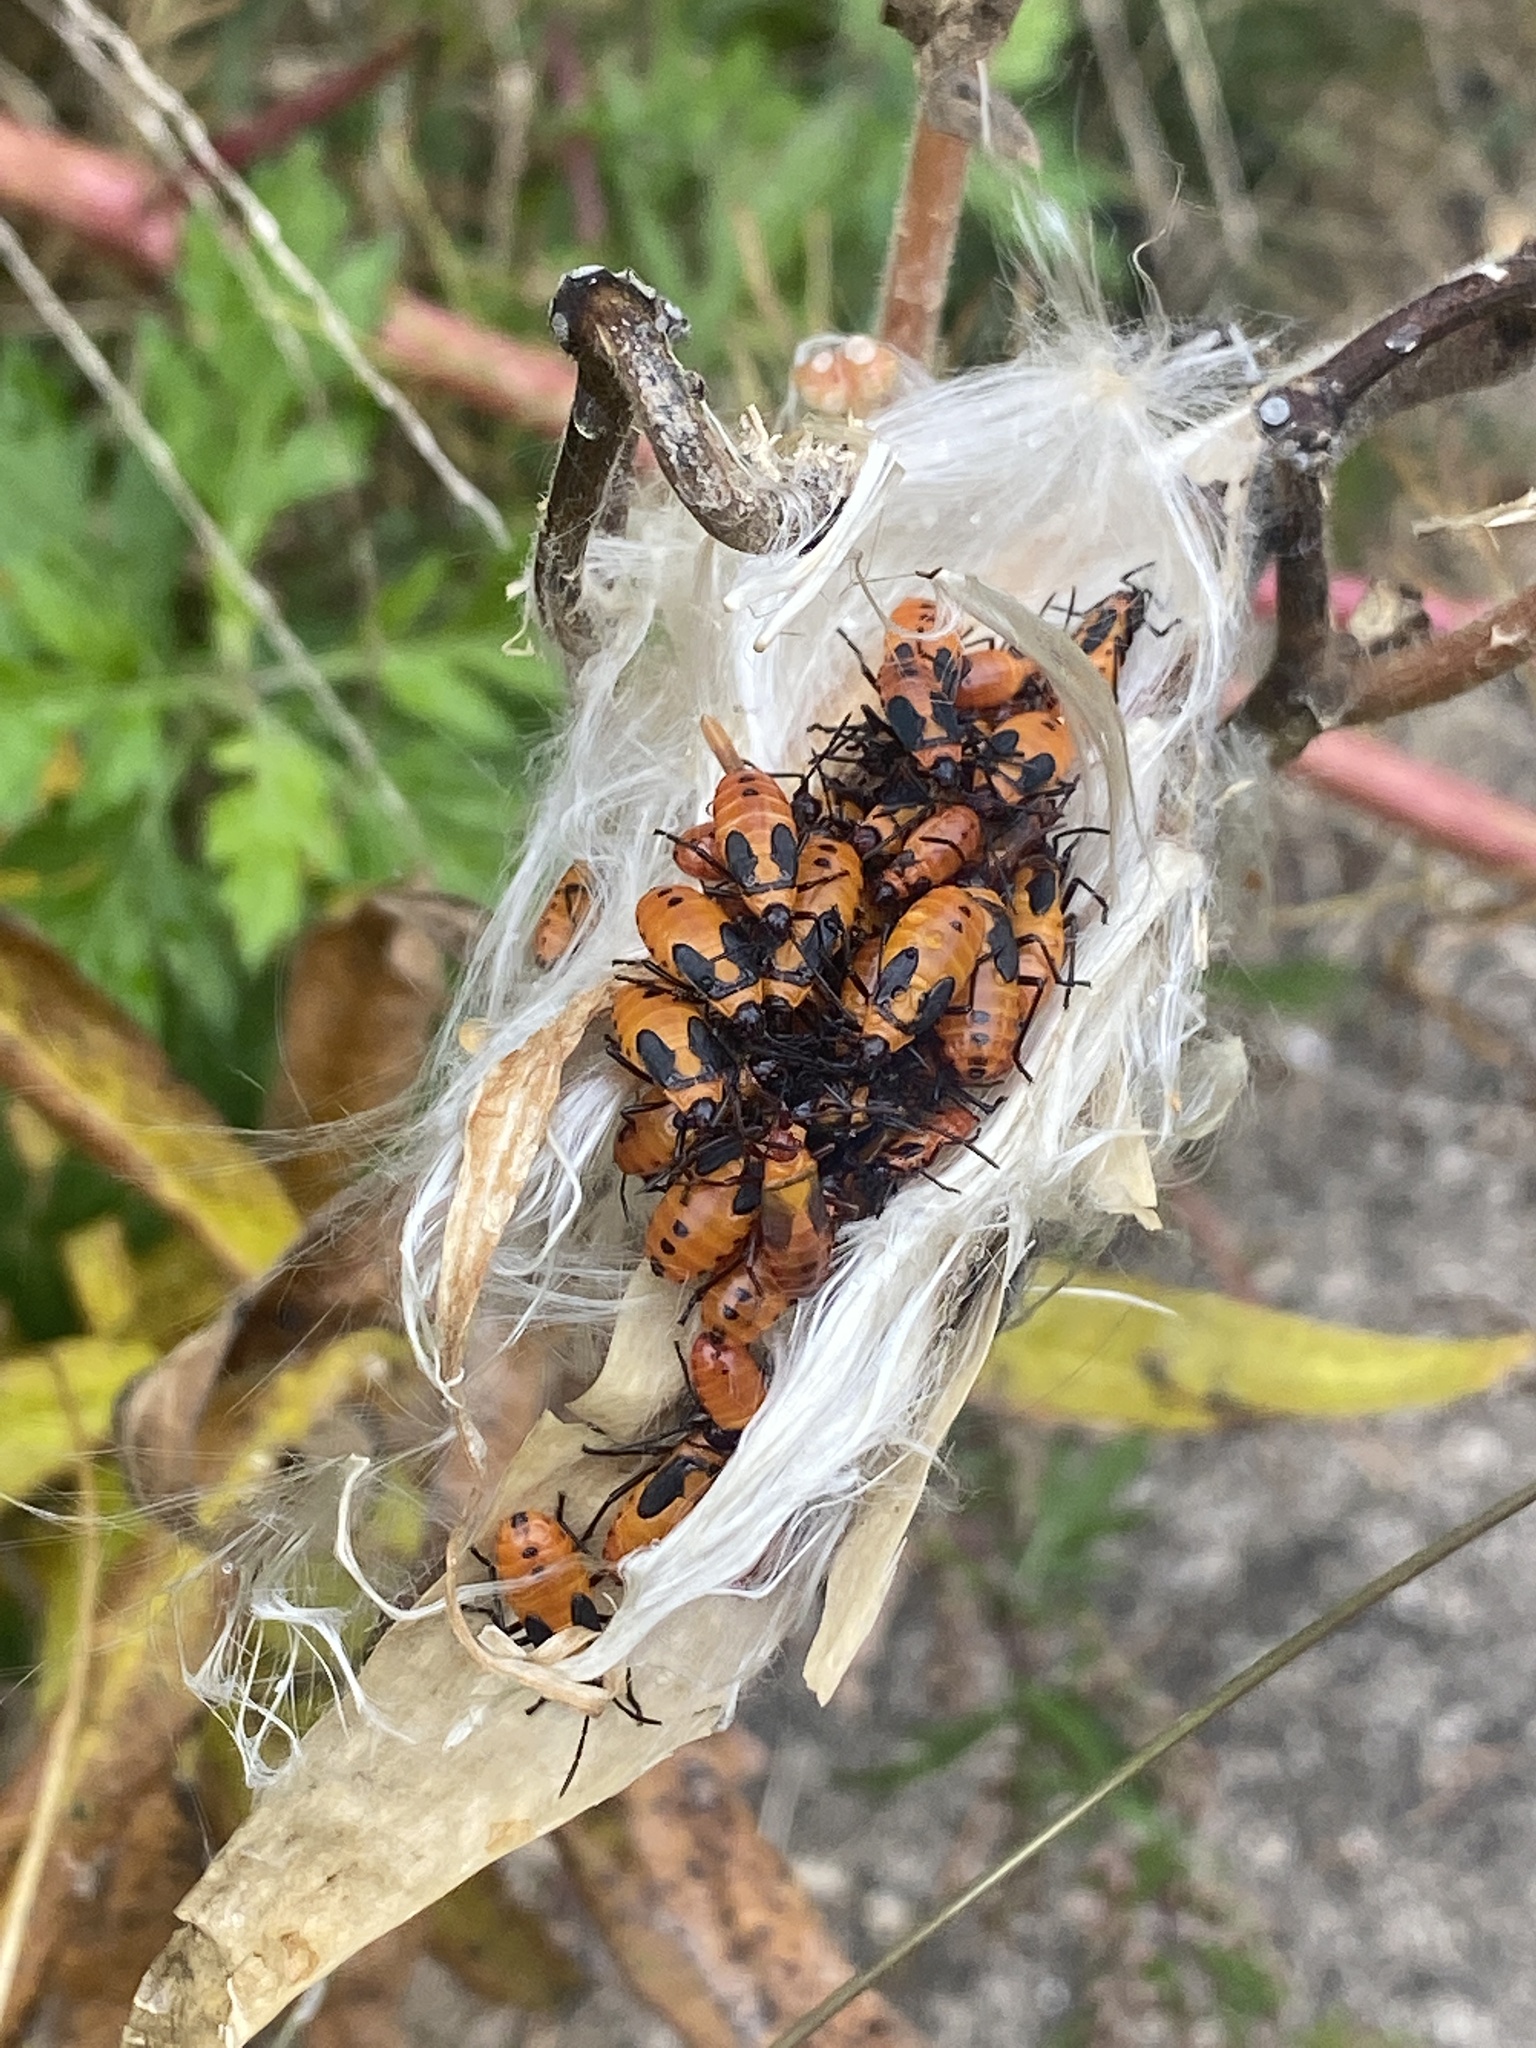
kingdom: Animalia
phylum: Arthropoda
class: Insecta
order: Hemiptera
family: Lygaeidae
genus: Oncopeltus
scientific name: Oncopeltus fasciatus
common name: Large milkweed bug
